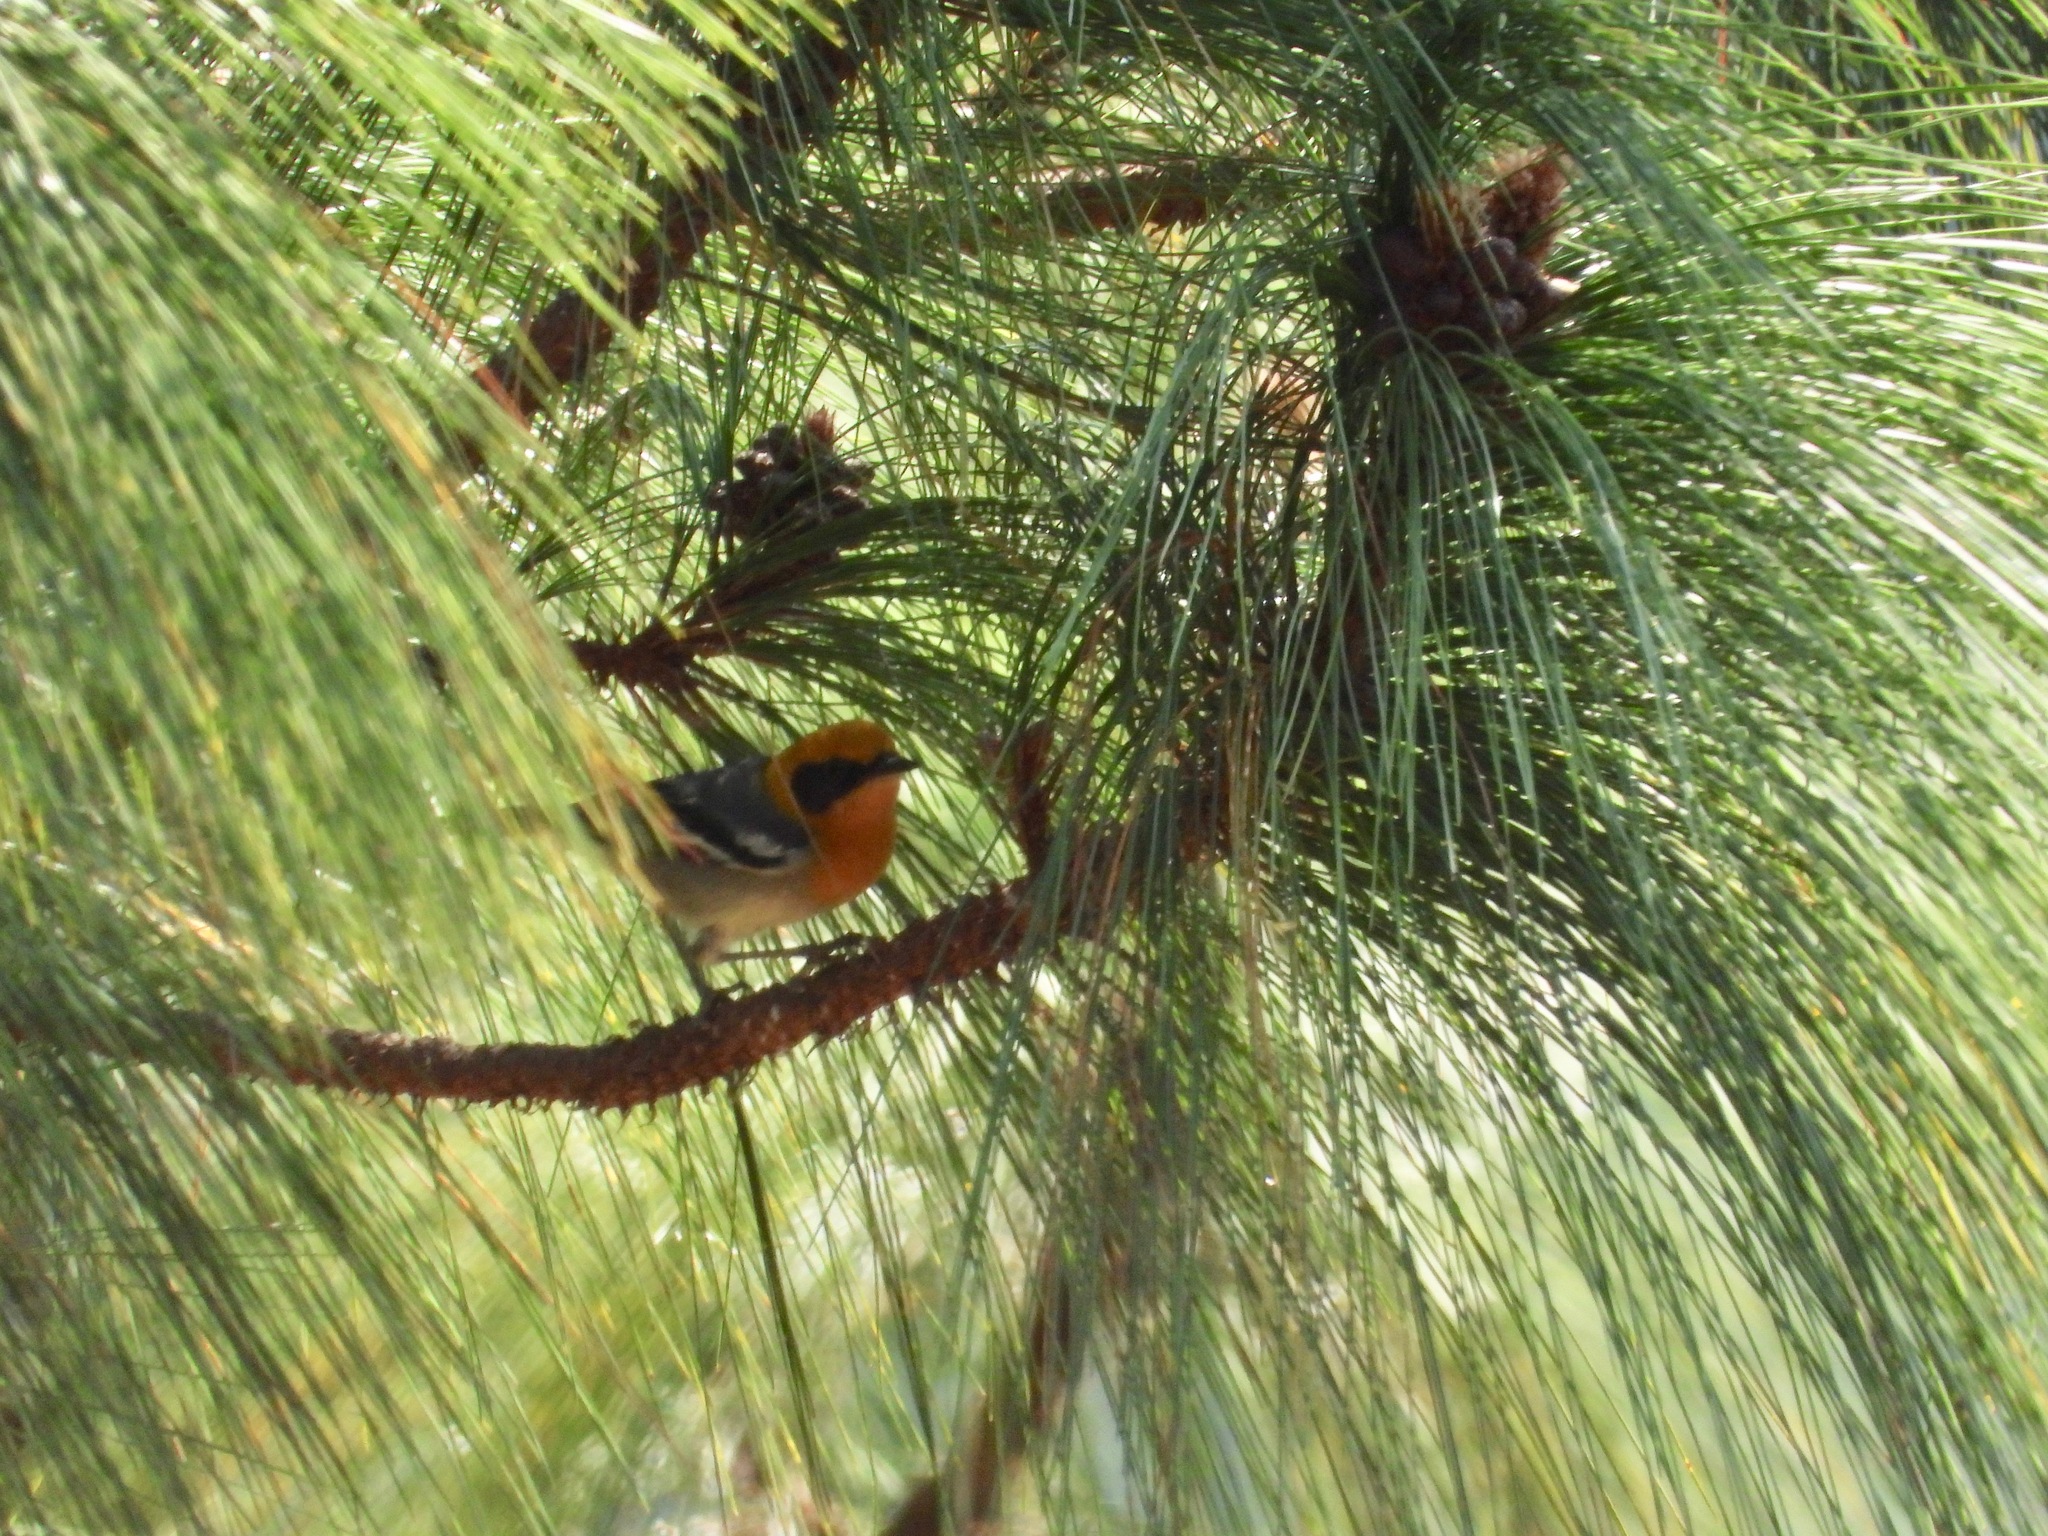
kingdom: Animalia
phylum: Chordata
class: Aves
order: Passeriformes
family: Peucedramidae
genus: Peucedramus
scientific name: Peucedramus taeniatus
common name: Olive warbler
